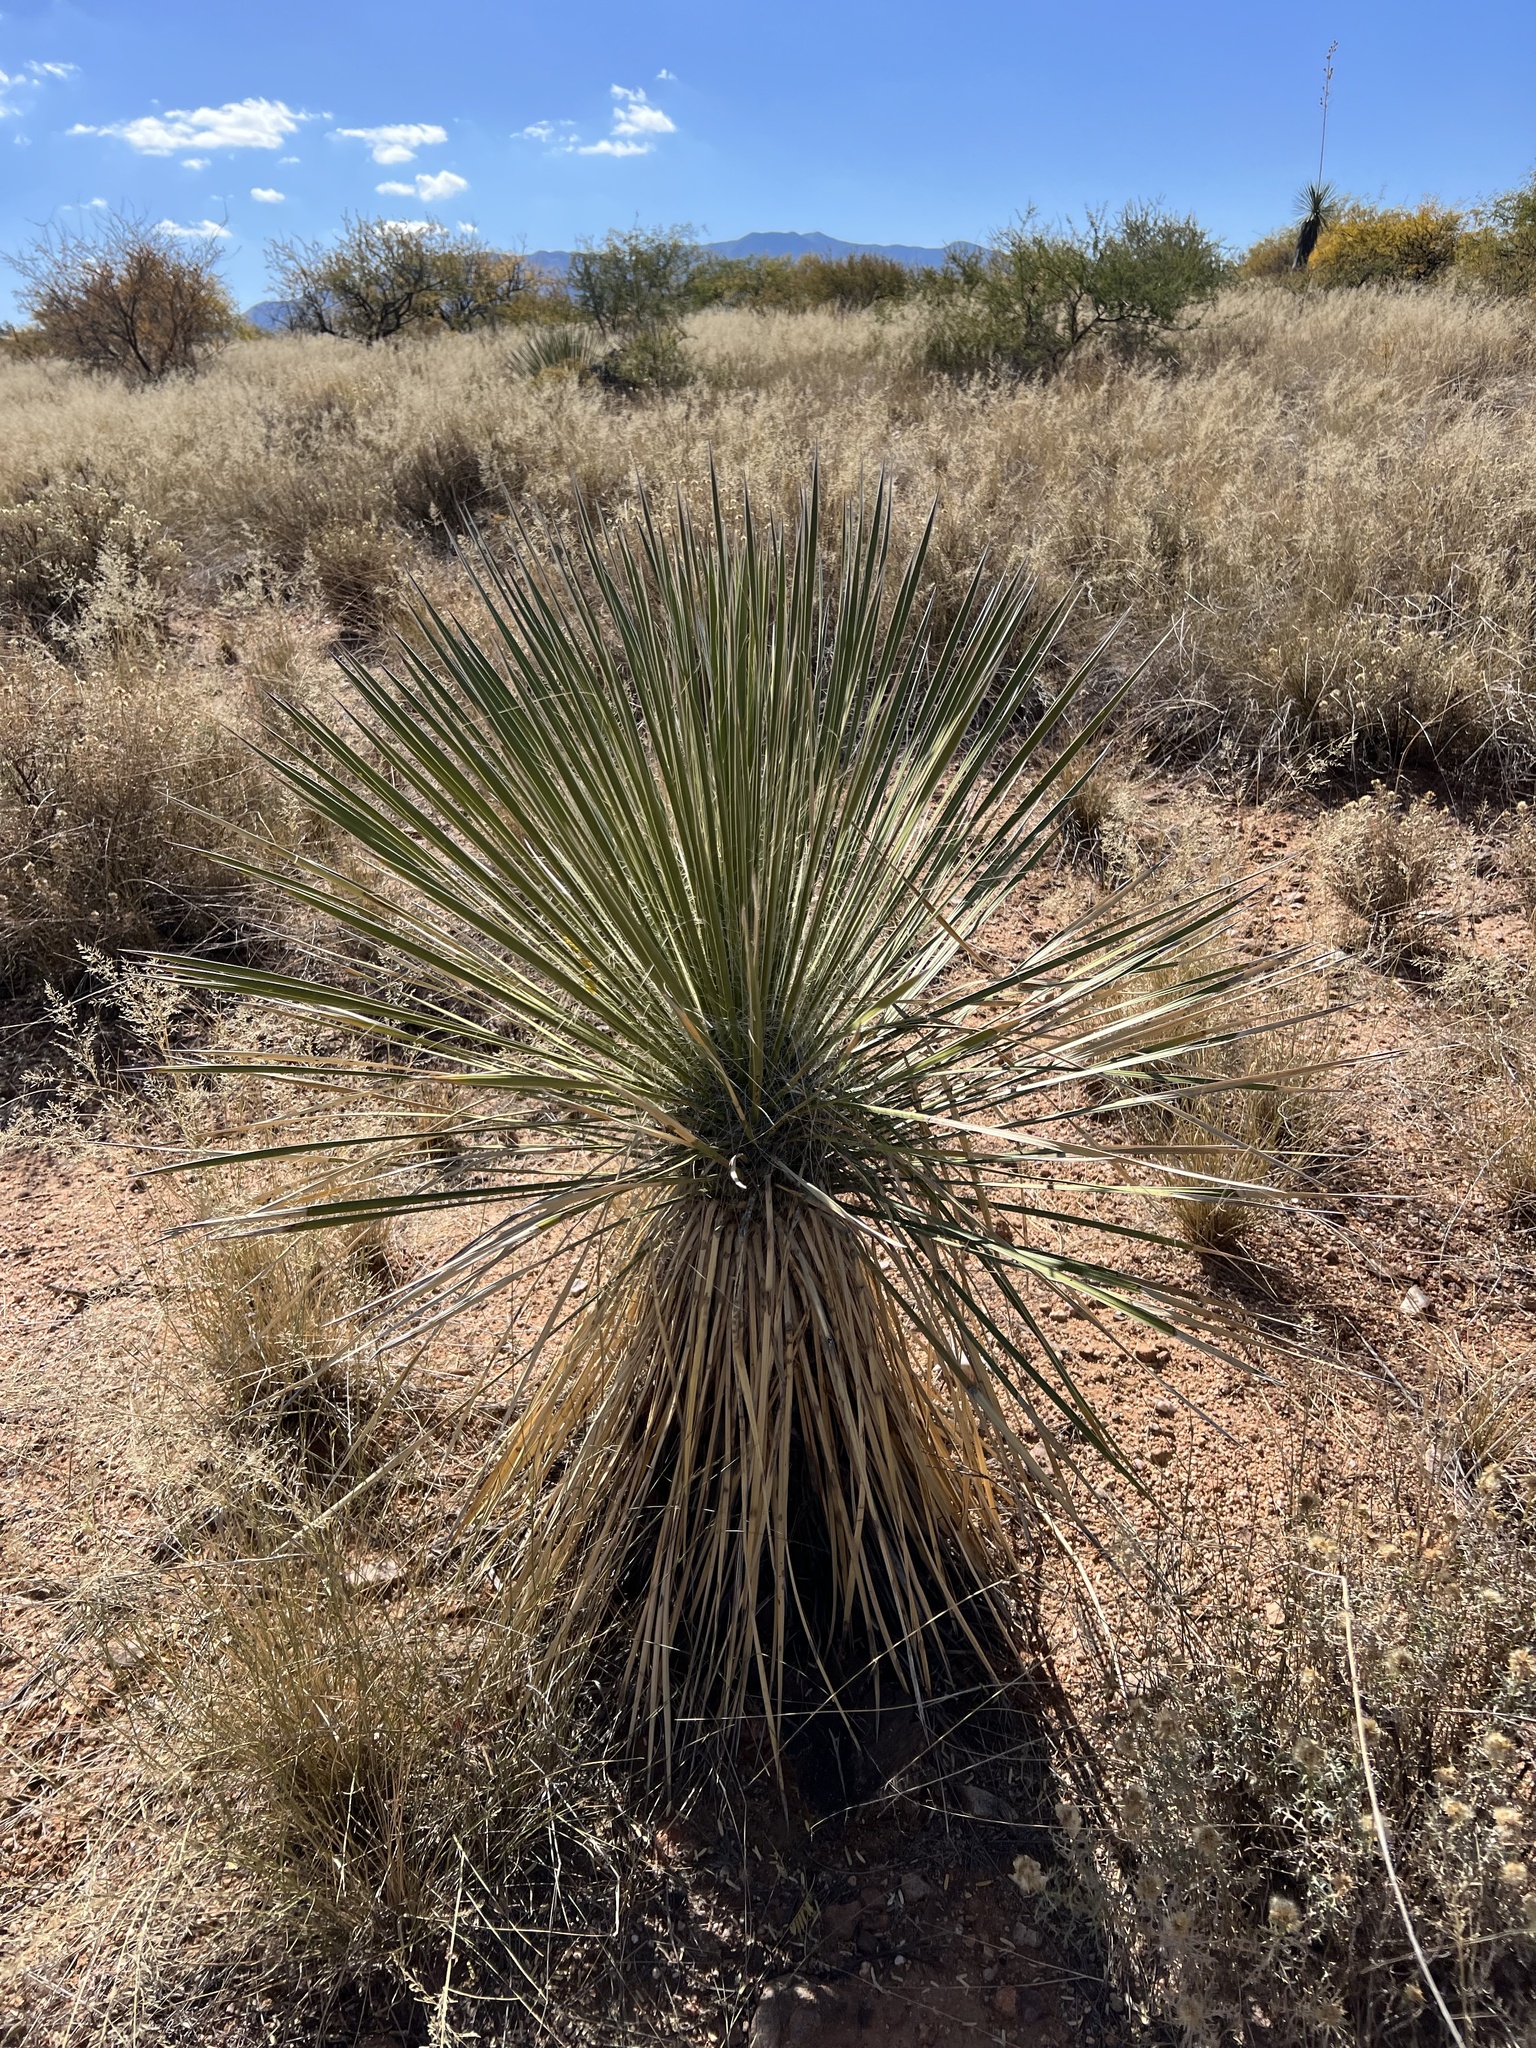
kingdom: Plantae
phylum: Tracheophyta
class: Liliopsida
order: Asparagales
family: Asparagaceae
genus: Yucca
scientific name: Yucca elata
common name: Palmella
